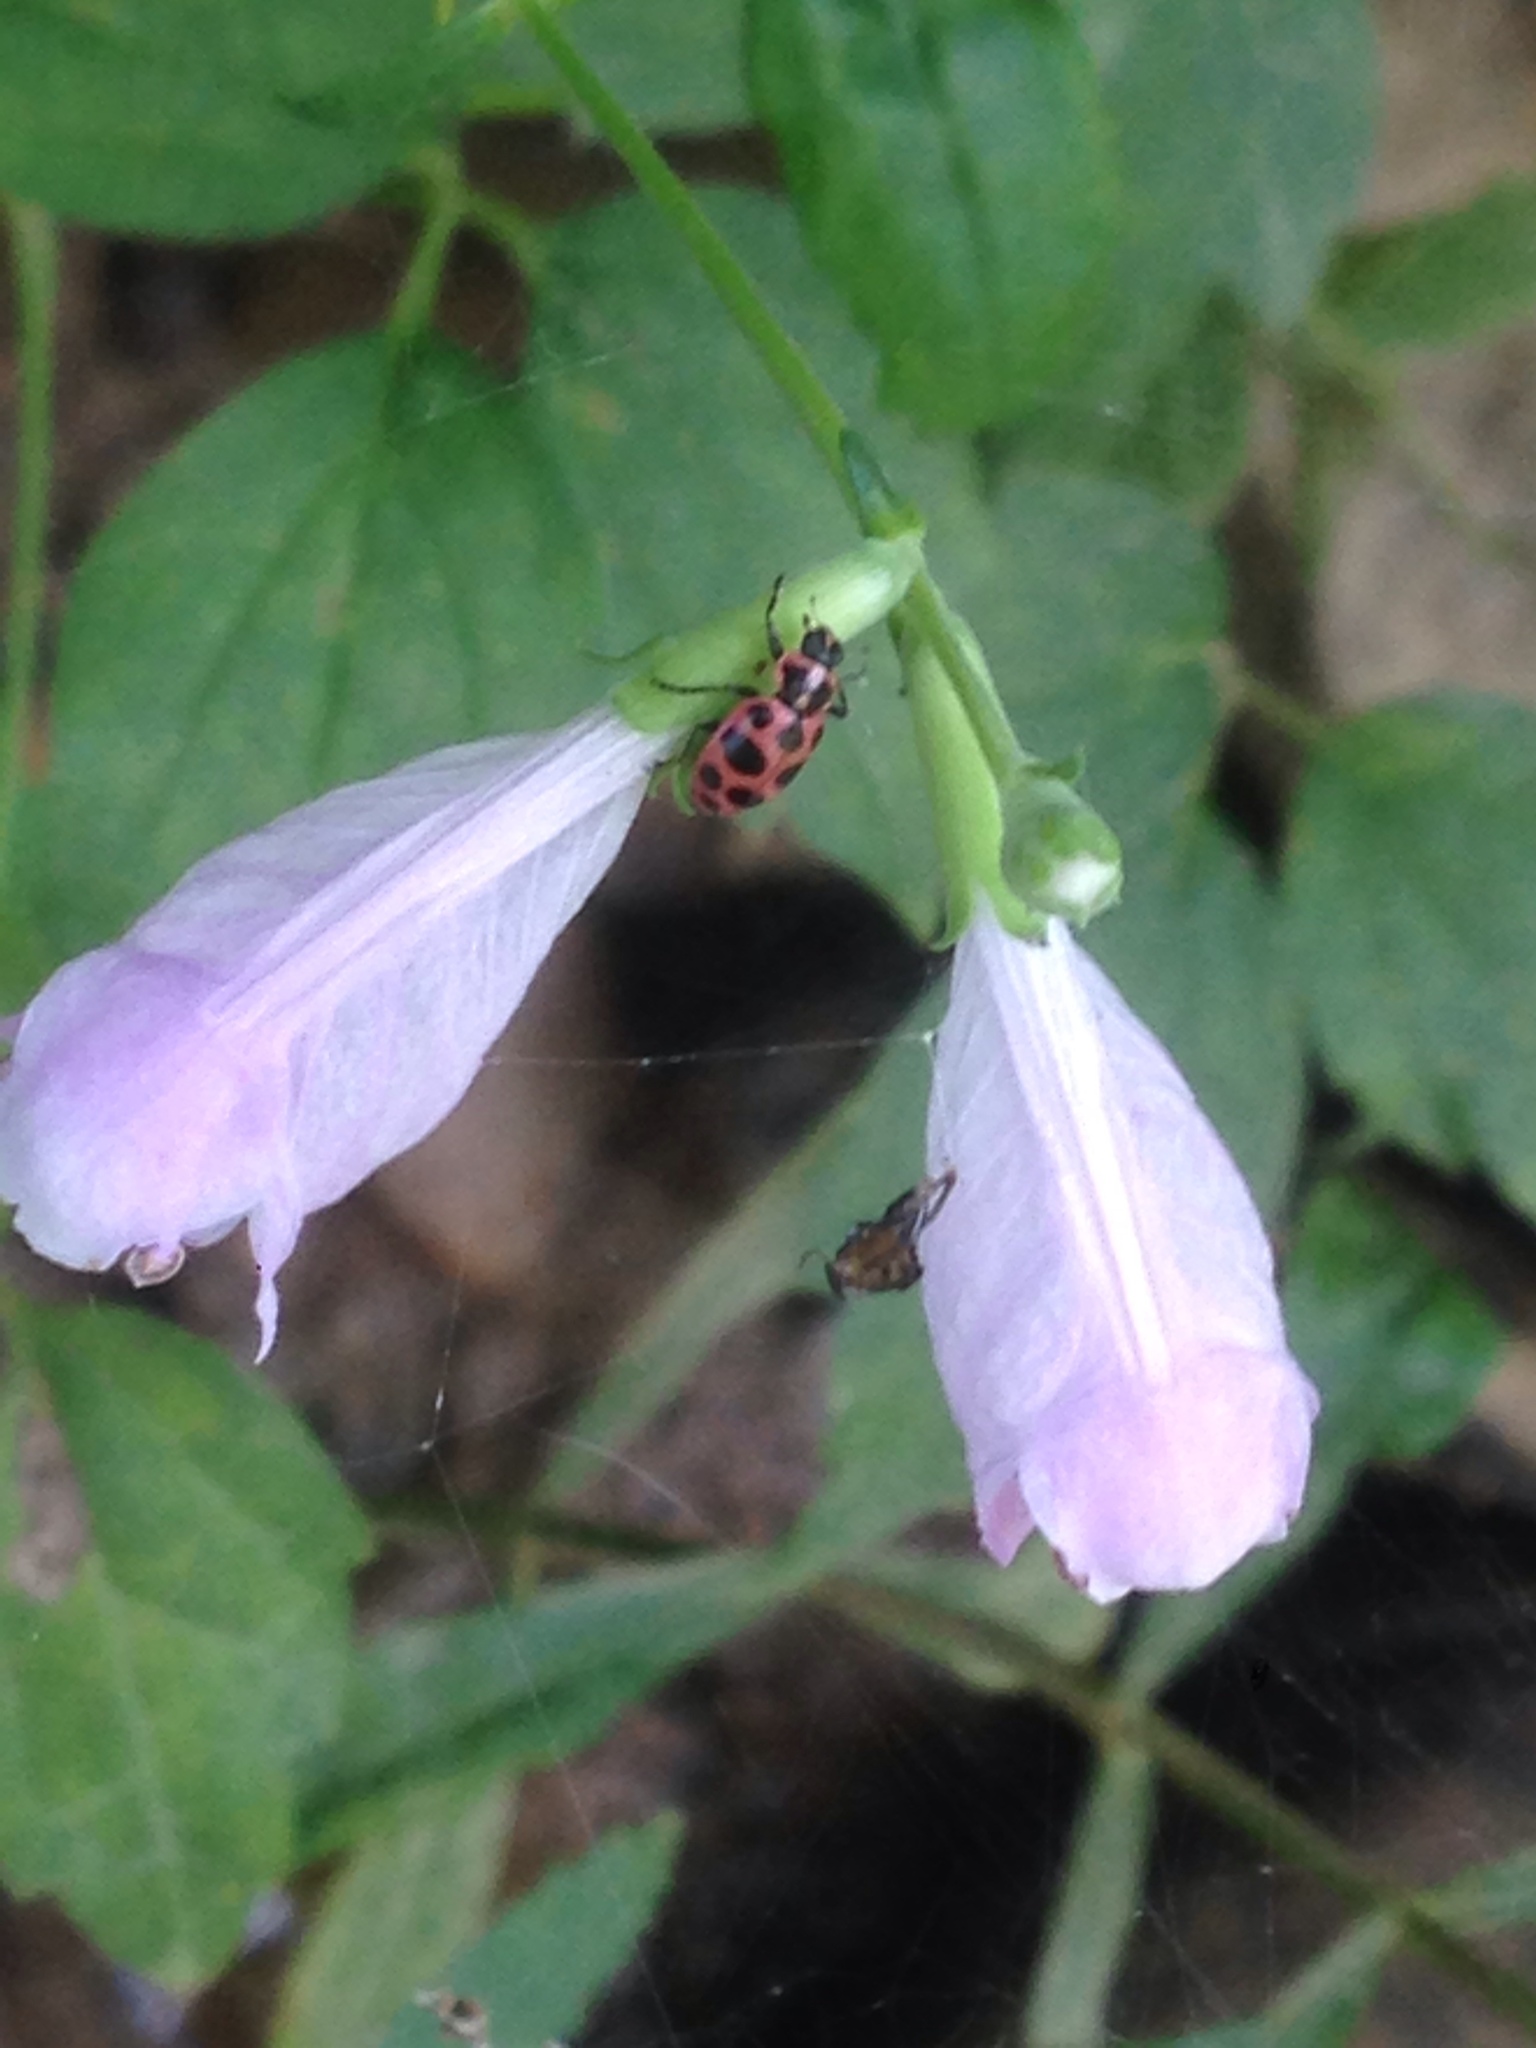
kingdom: Animalia
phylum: Arthropoda
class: Insecta
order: Coleoptera
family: Coccinellidae
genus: Coleomegilla
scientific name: Coleomegilla maculata
